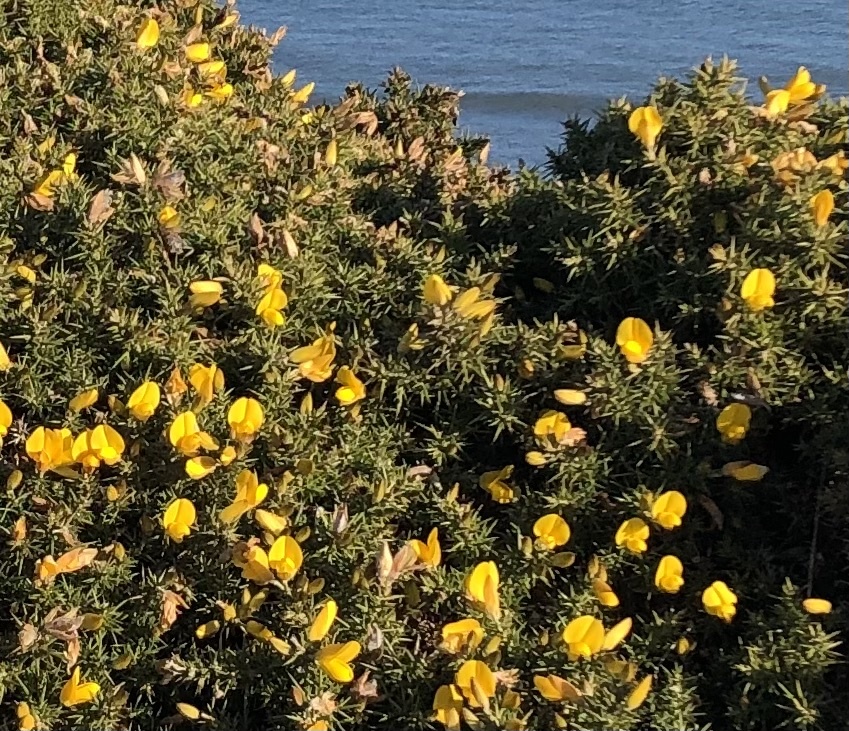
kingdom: Plantae
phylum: Tracheophyta
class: Magnoliopsida
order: Fabales
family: Fabaceae
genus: Ulex
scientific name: Ulex europaeus
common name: Common gorse
